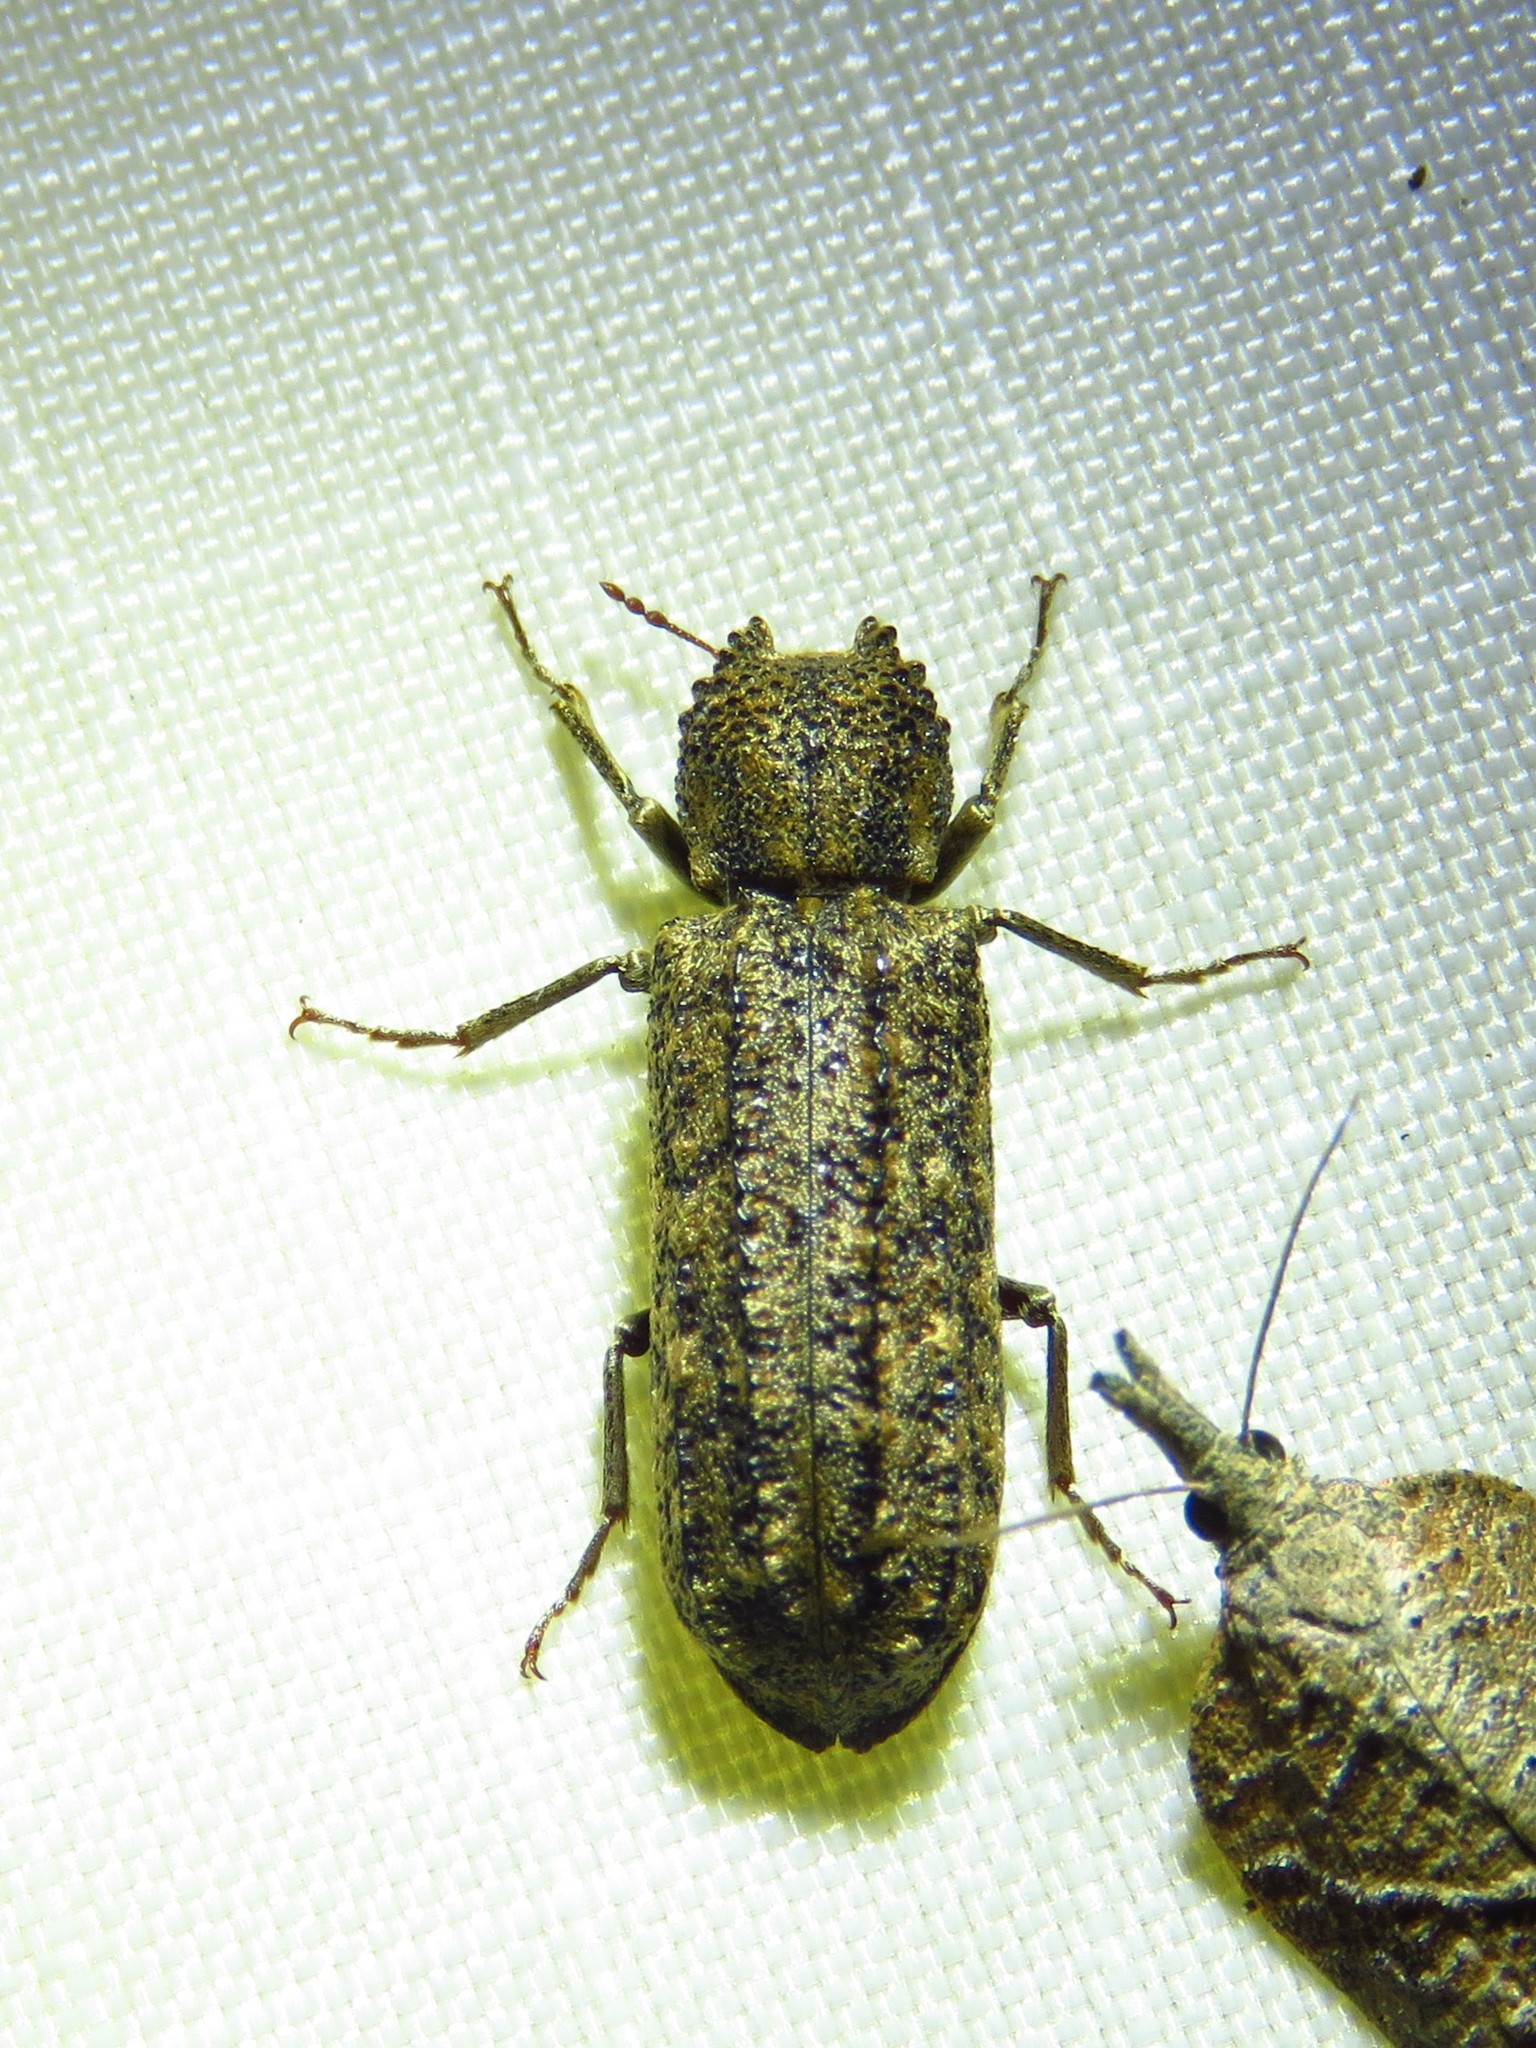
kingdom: Animalia
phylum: Arthropoda
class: Insecta
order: Coleoptera
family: Bostrichidae
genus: Lichenophanes
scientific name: Lichenophanes bicornis
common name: Two-horned powder-post beetle
